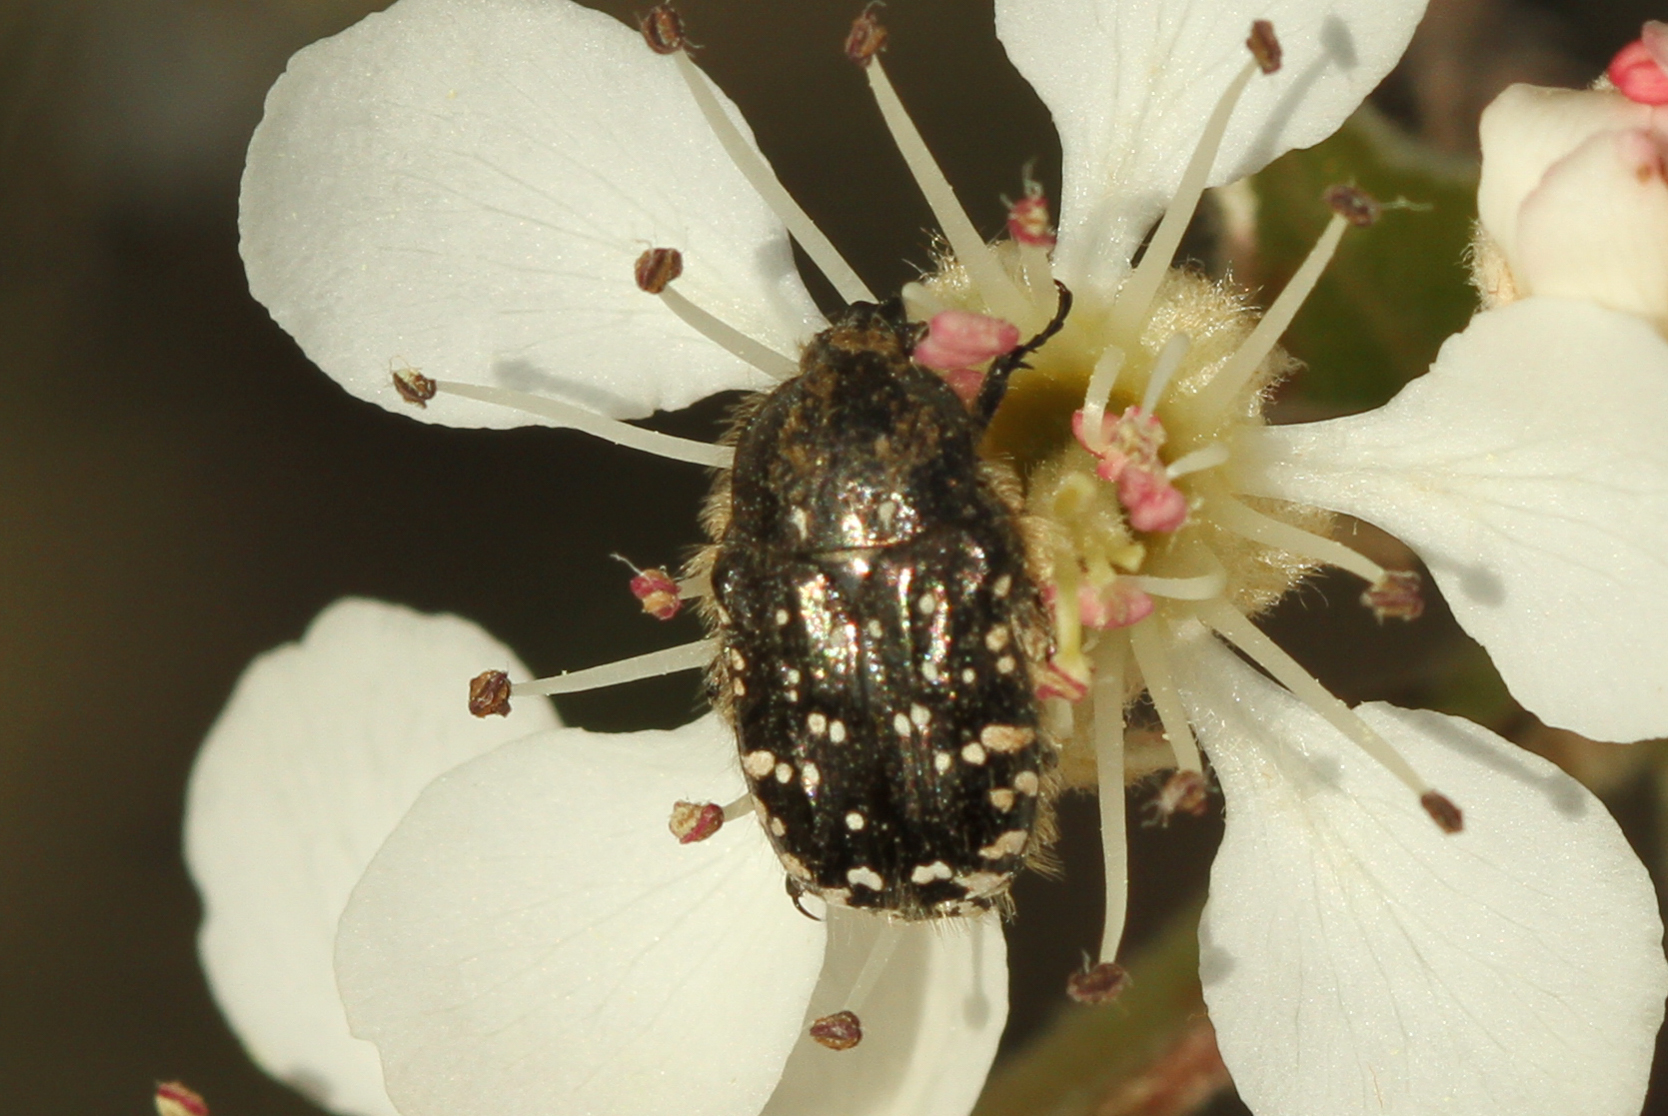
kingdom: Animalia
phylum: Arthropoda
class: Insecta
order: Coleoptera
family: Scarabaeidae
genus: Oxythyrea
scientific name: Oxythyrea funesta
